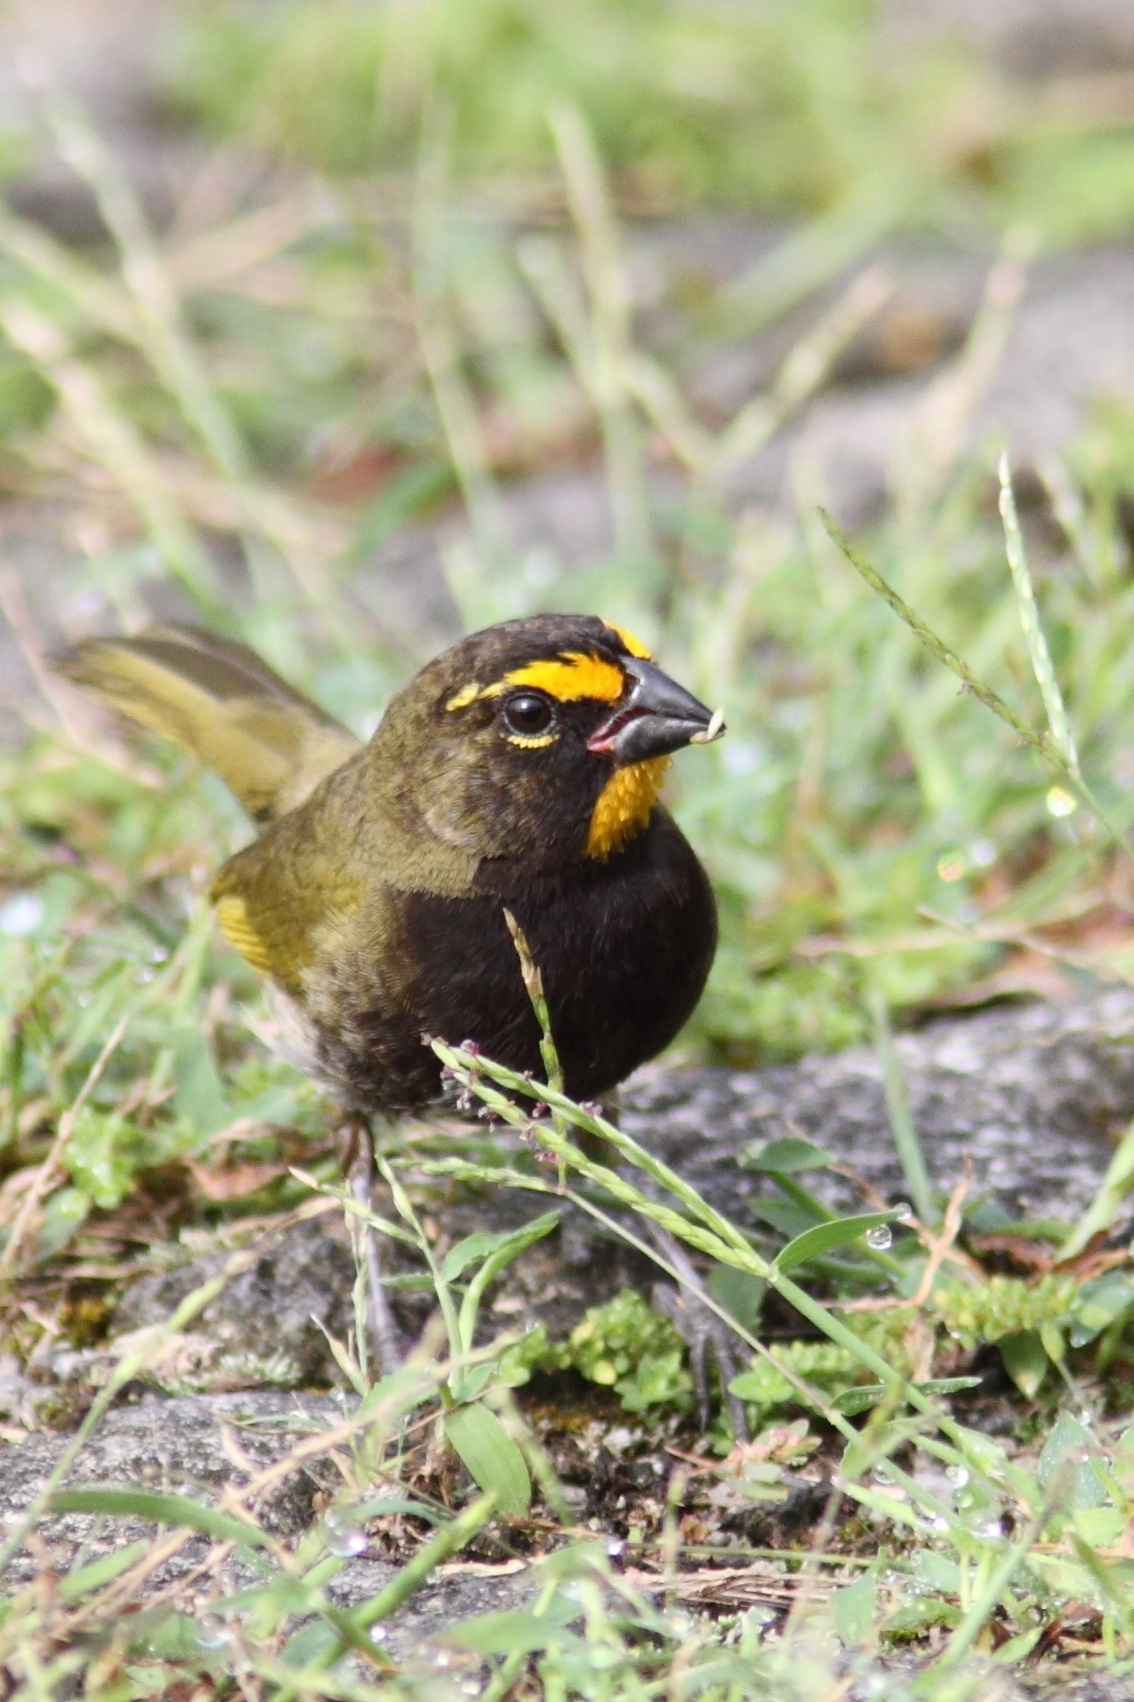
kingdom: Animalia
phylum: Chordata
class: Aves
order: Passeriformes
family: Thraupidae
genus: Tiaris
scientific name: Tiaris olivaceus
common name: Yellow-faced grassquit
